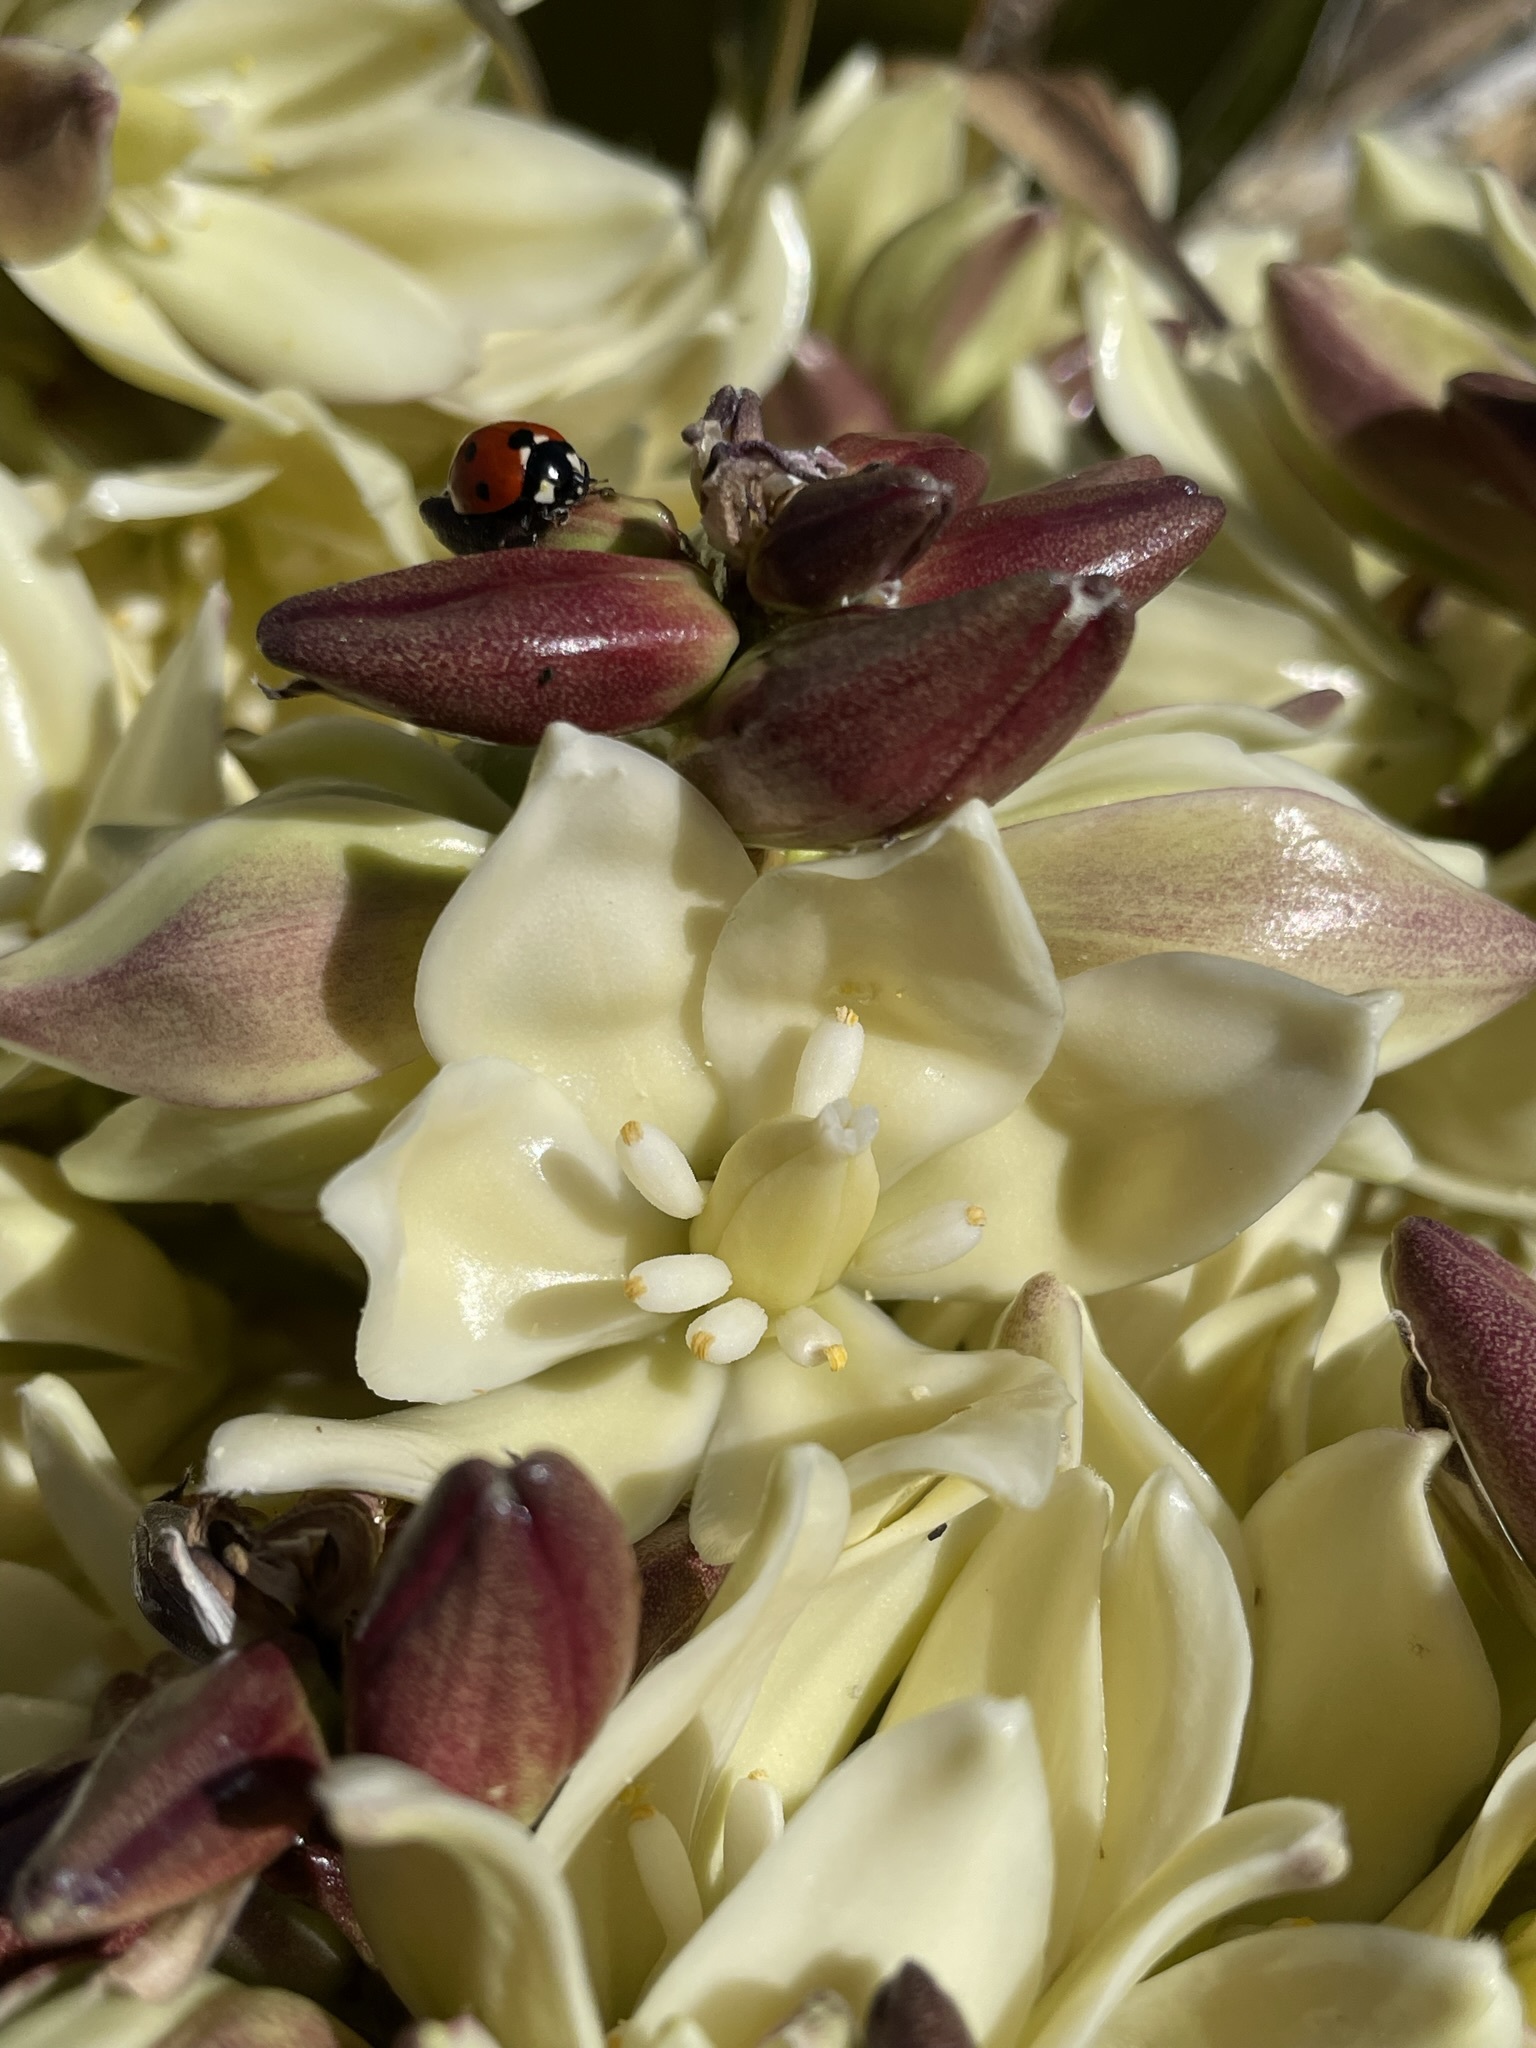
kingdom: Plantae
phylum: Tracheophyta
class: Liliopsida
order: Asparagales
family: Asparagaceae
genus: Yucca
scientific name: Yucca schidigera
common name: Mojave yucca
